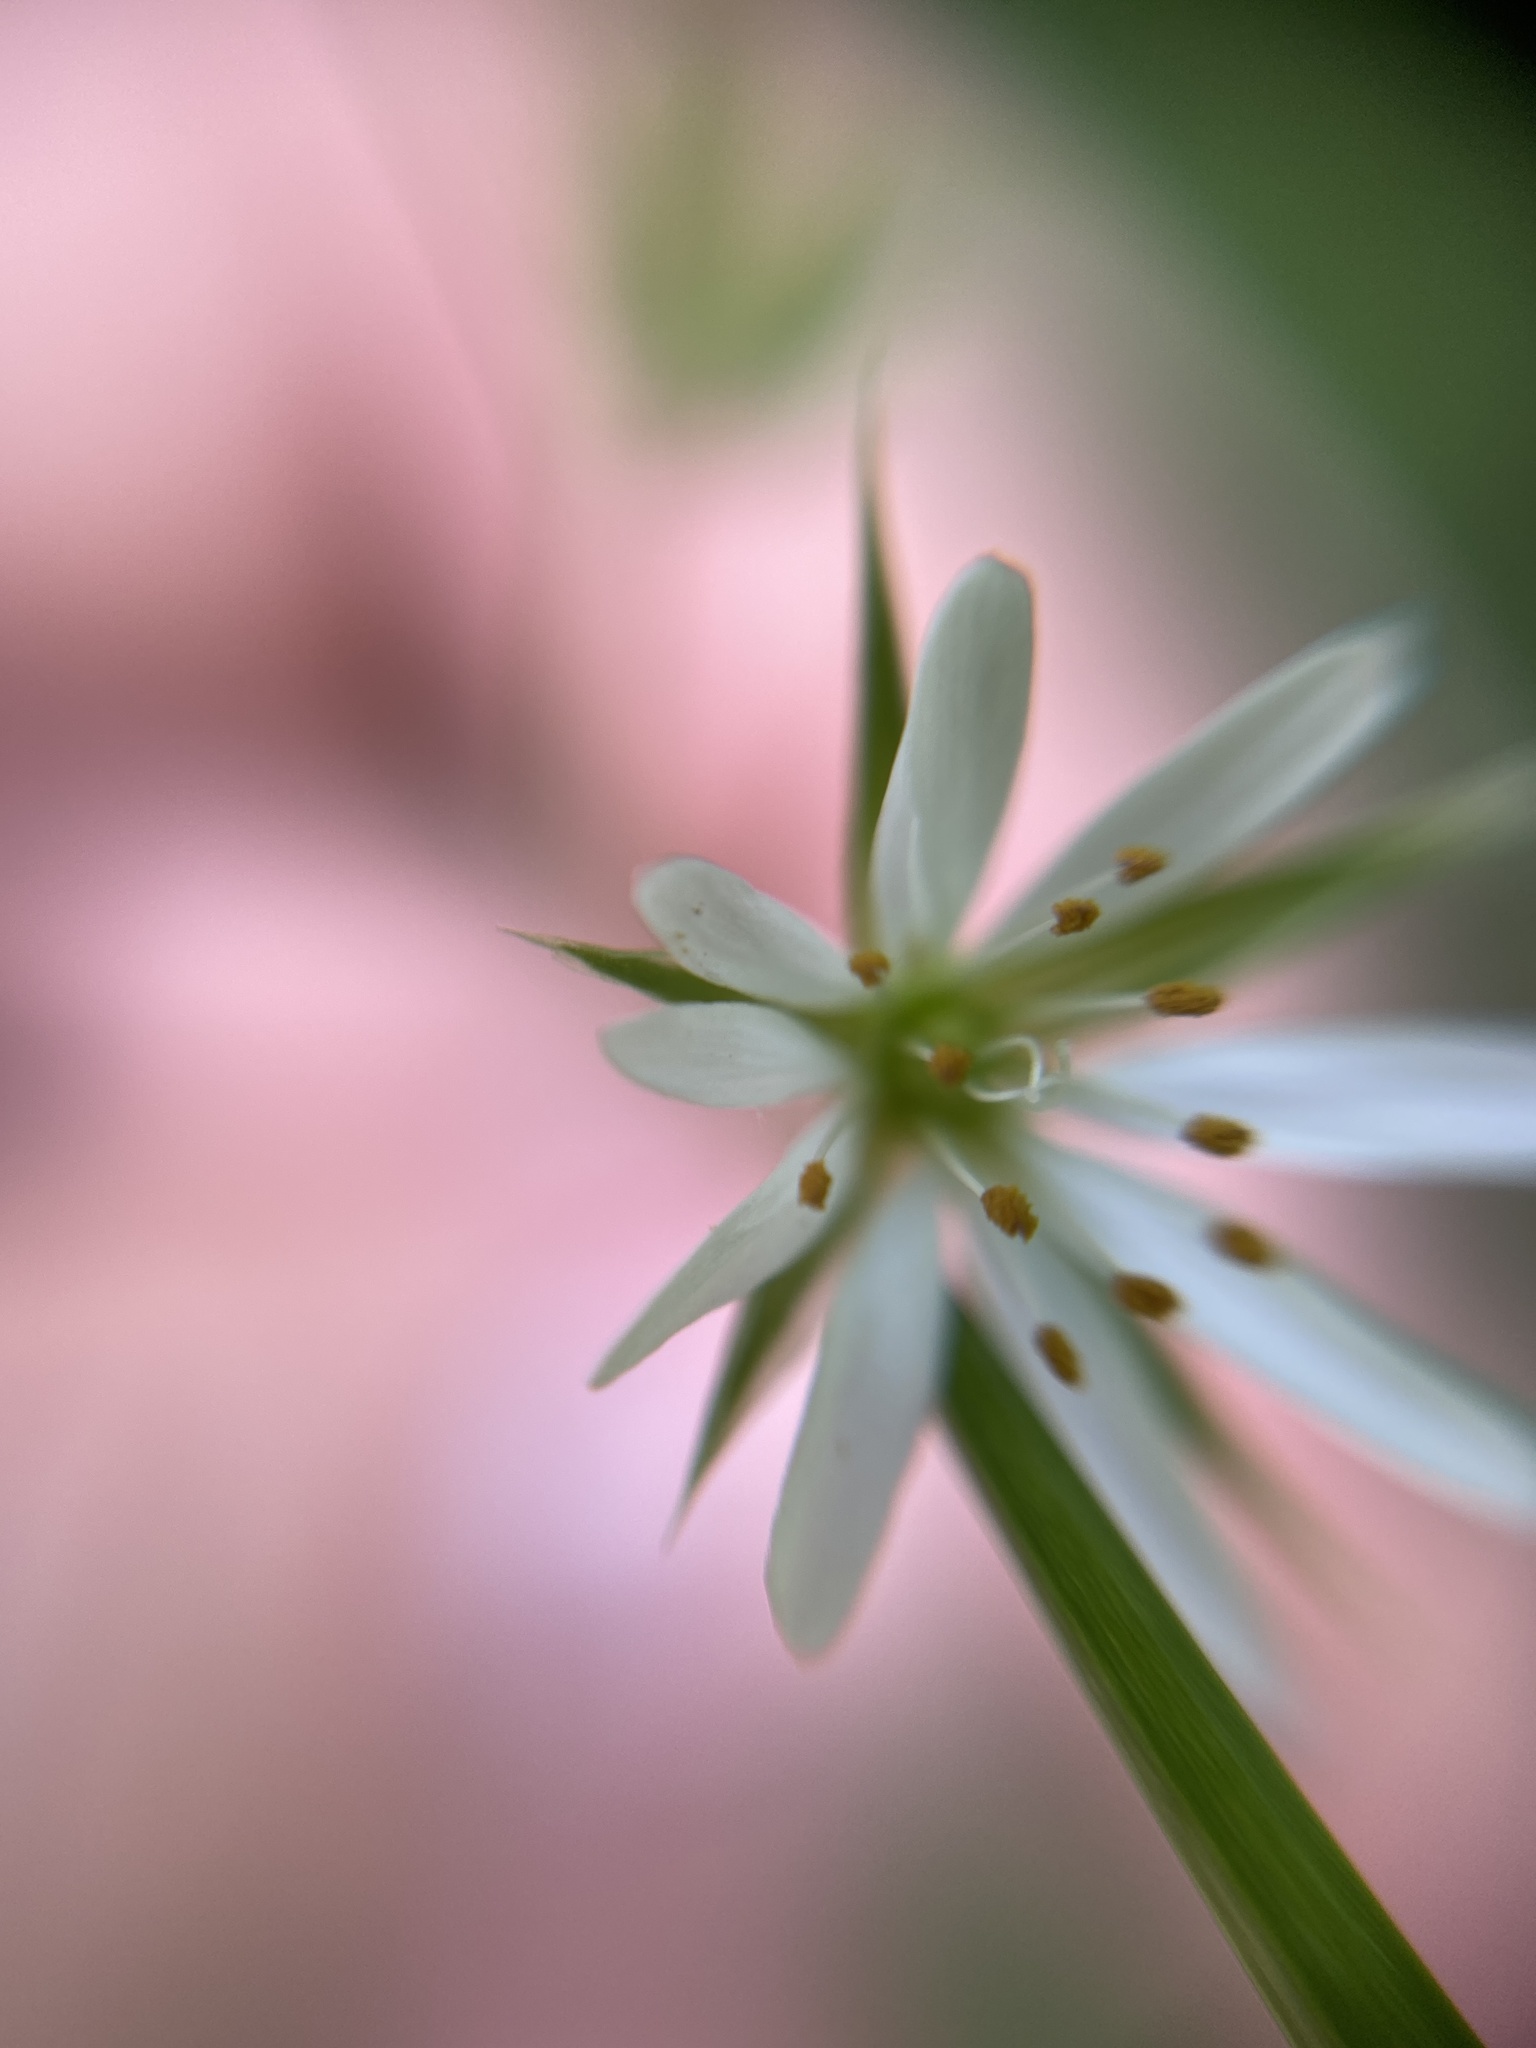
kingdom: Plantae
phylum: Tracheophyta
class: Magnoliopsida
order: Caryophyllales
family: Caryophyllaceae
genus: Stellaria
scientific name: Stellaria graminea
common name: Grass-like starwort
